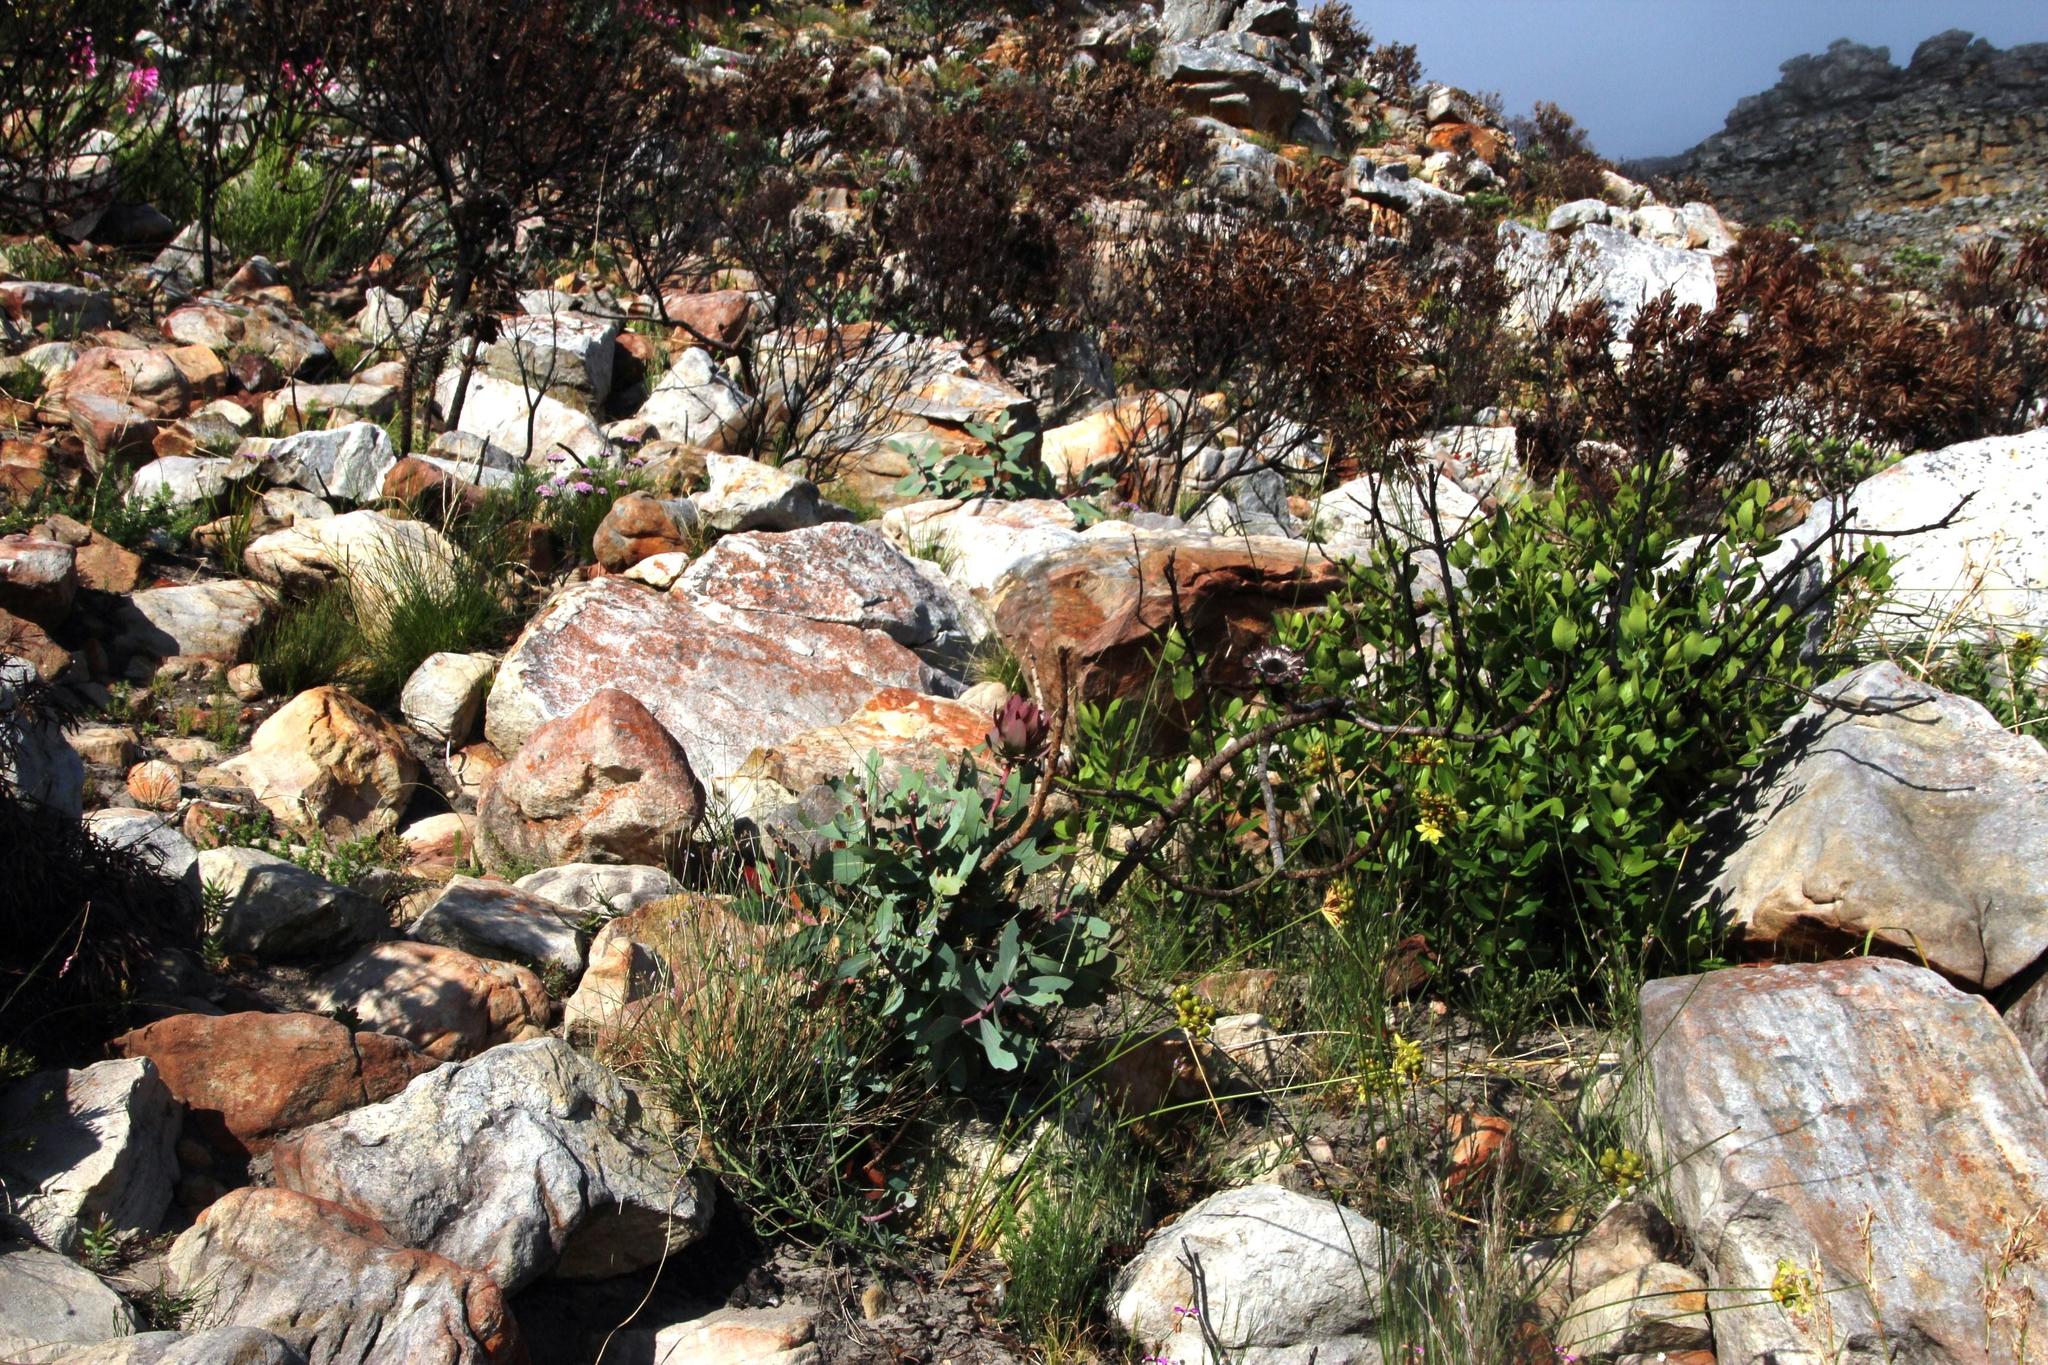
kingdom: Plantae
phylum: Tracheophyta
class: Magnoliopsida
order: Proteales
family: Proteaceae
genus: Protea
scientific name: Protea nitida
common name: Tree protea
